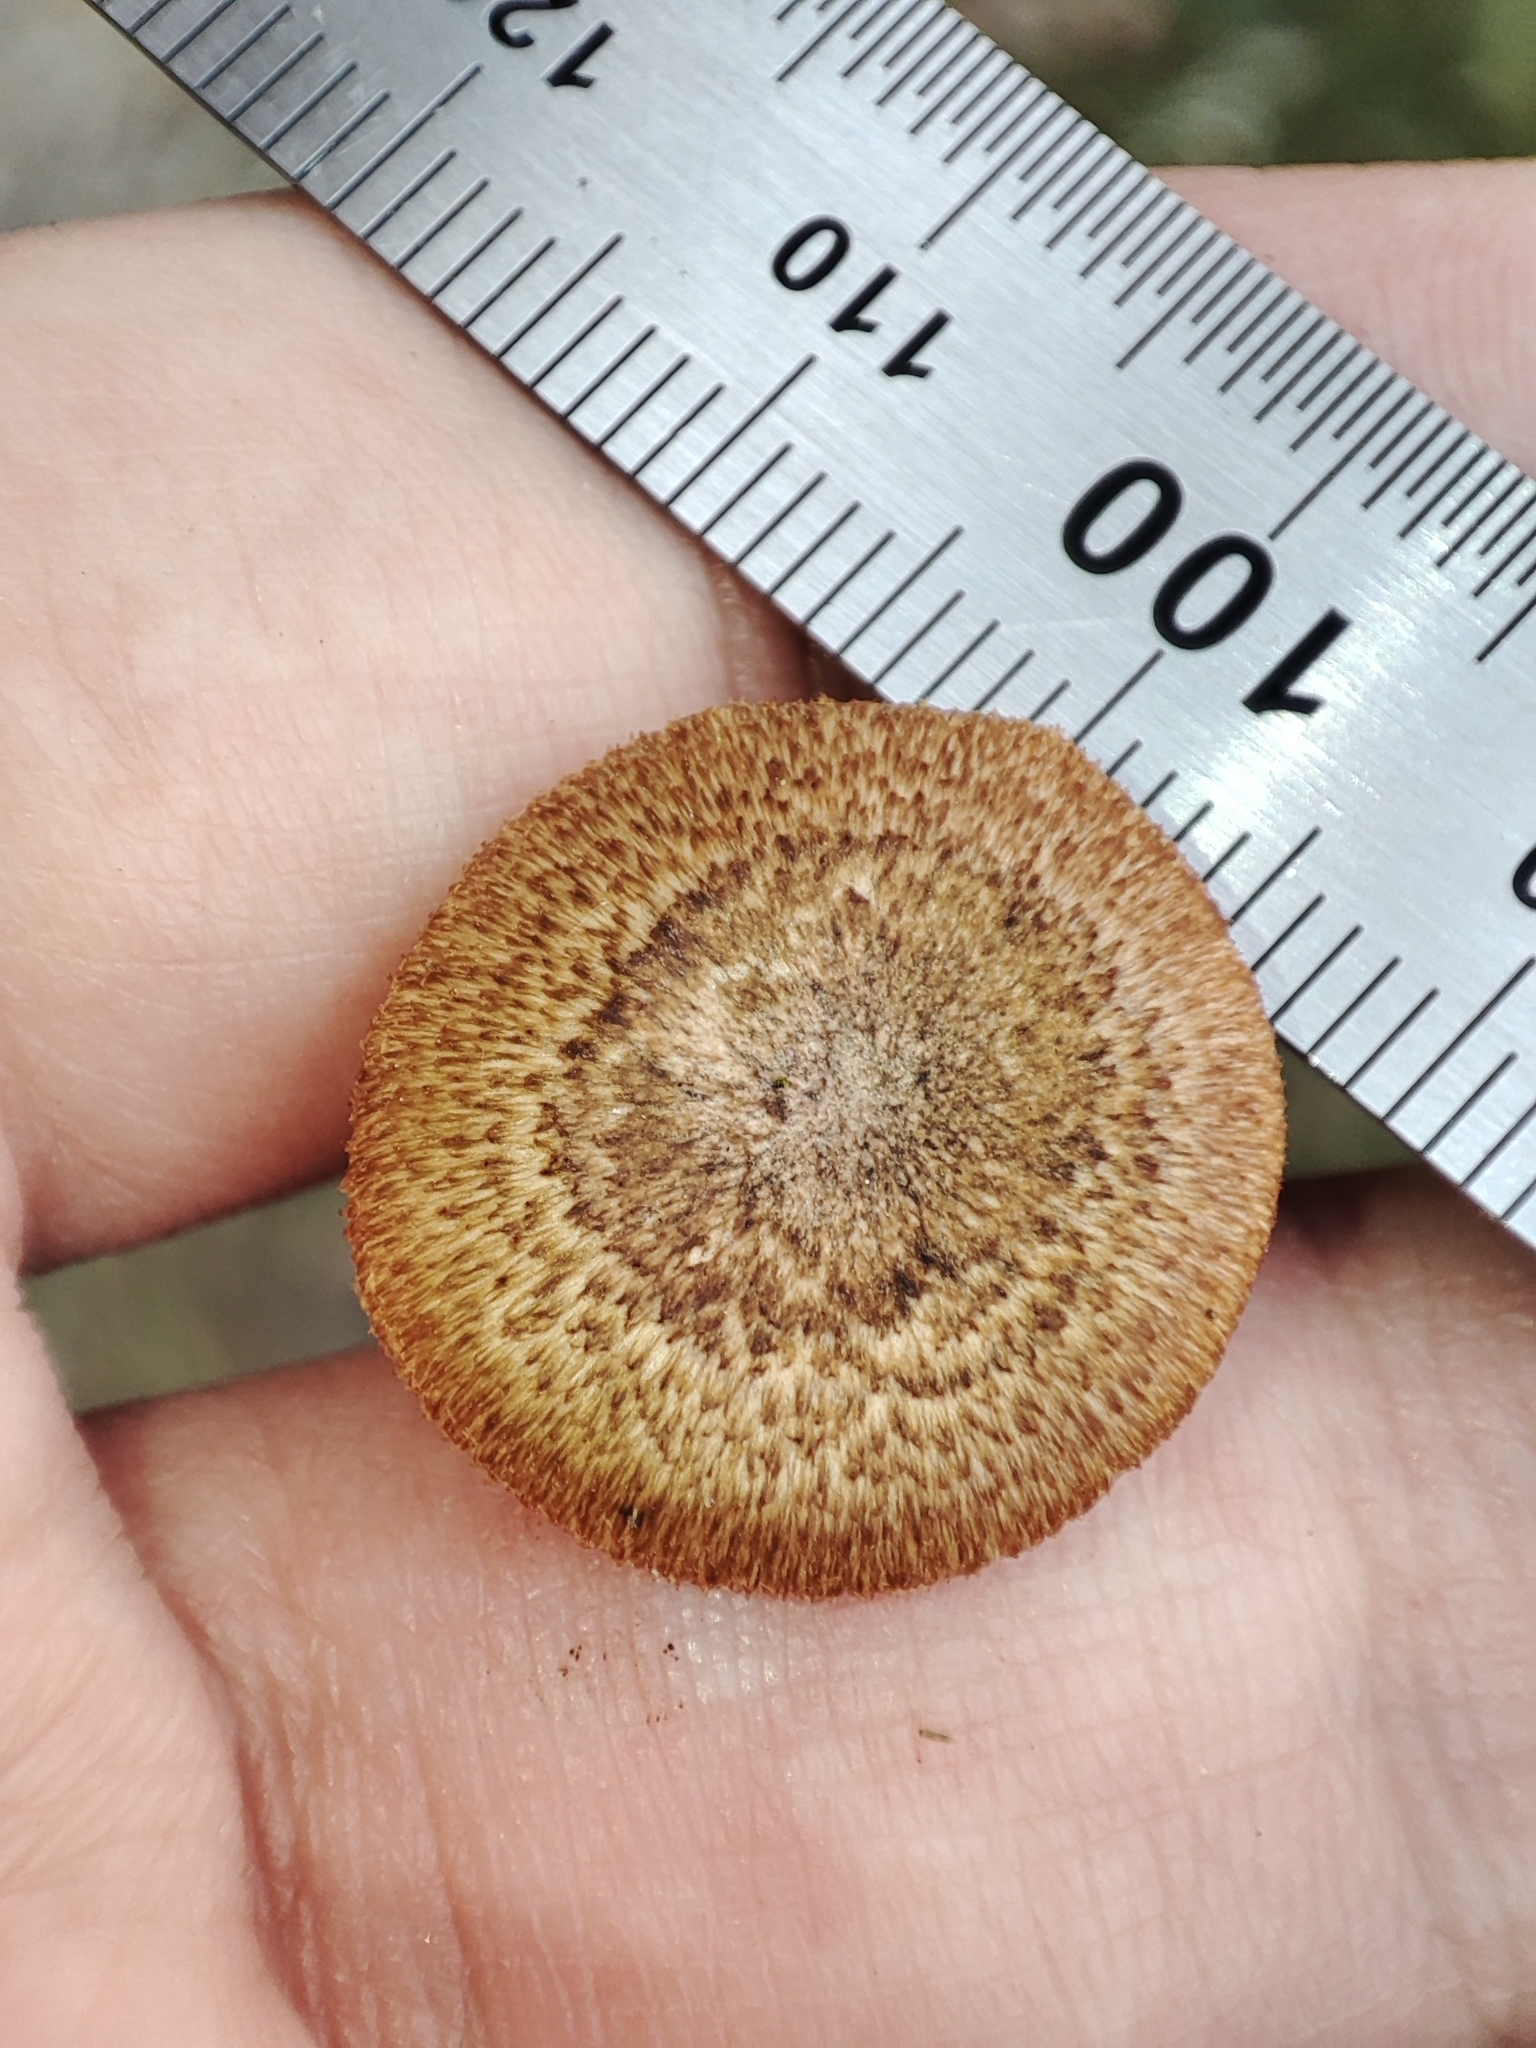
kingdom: Fungi
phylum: Basidiomycota
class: Agaricomycetes
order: Polyporales
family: Polyporaceae
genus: Lentinus
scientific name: Lentinus arcularius
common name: Spring polypore
